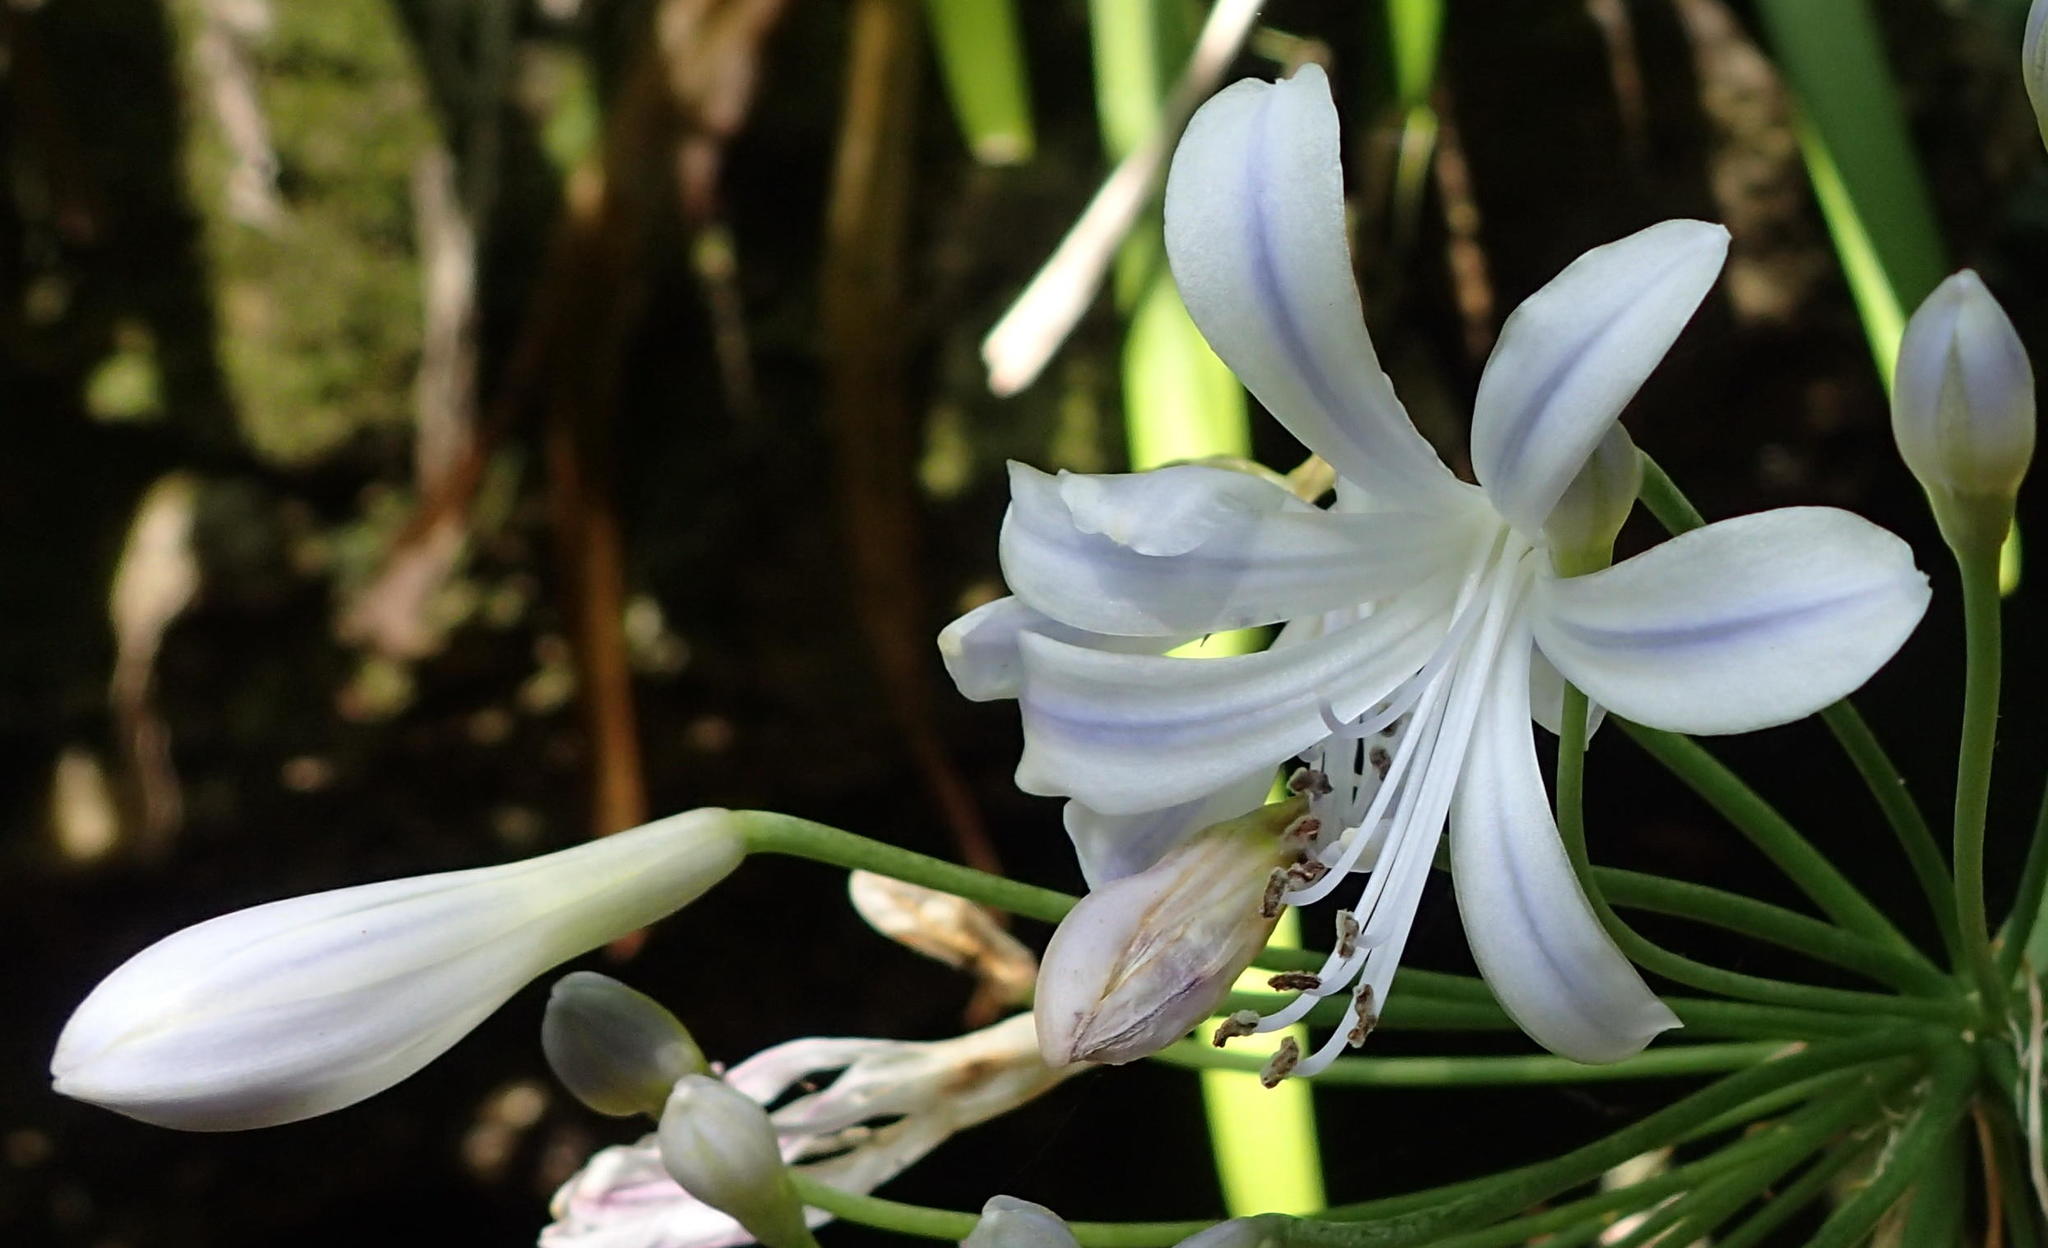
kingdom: Plantae
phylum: Tracheophyta
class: Liliopsida
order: Asparagales
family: Amaryllidaceae
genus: Agapanthus
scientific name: Agapanthus praecox
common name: African-lily
